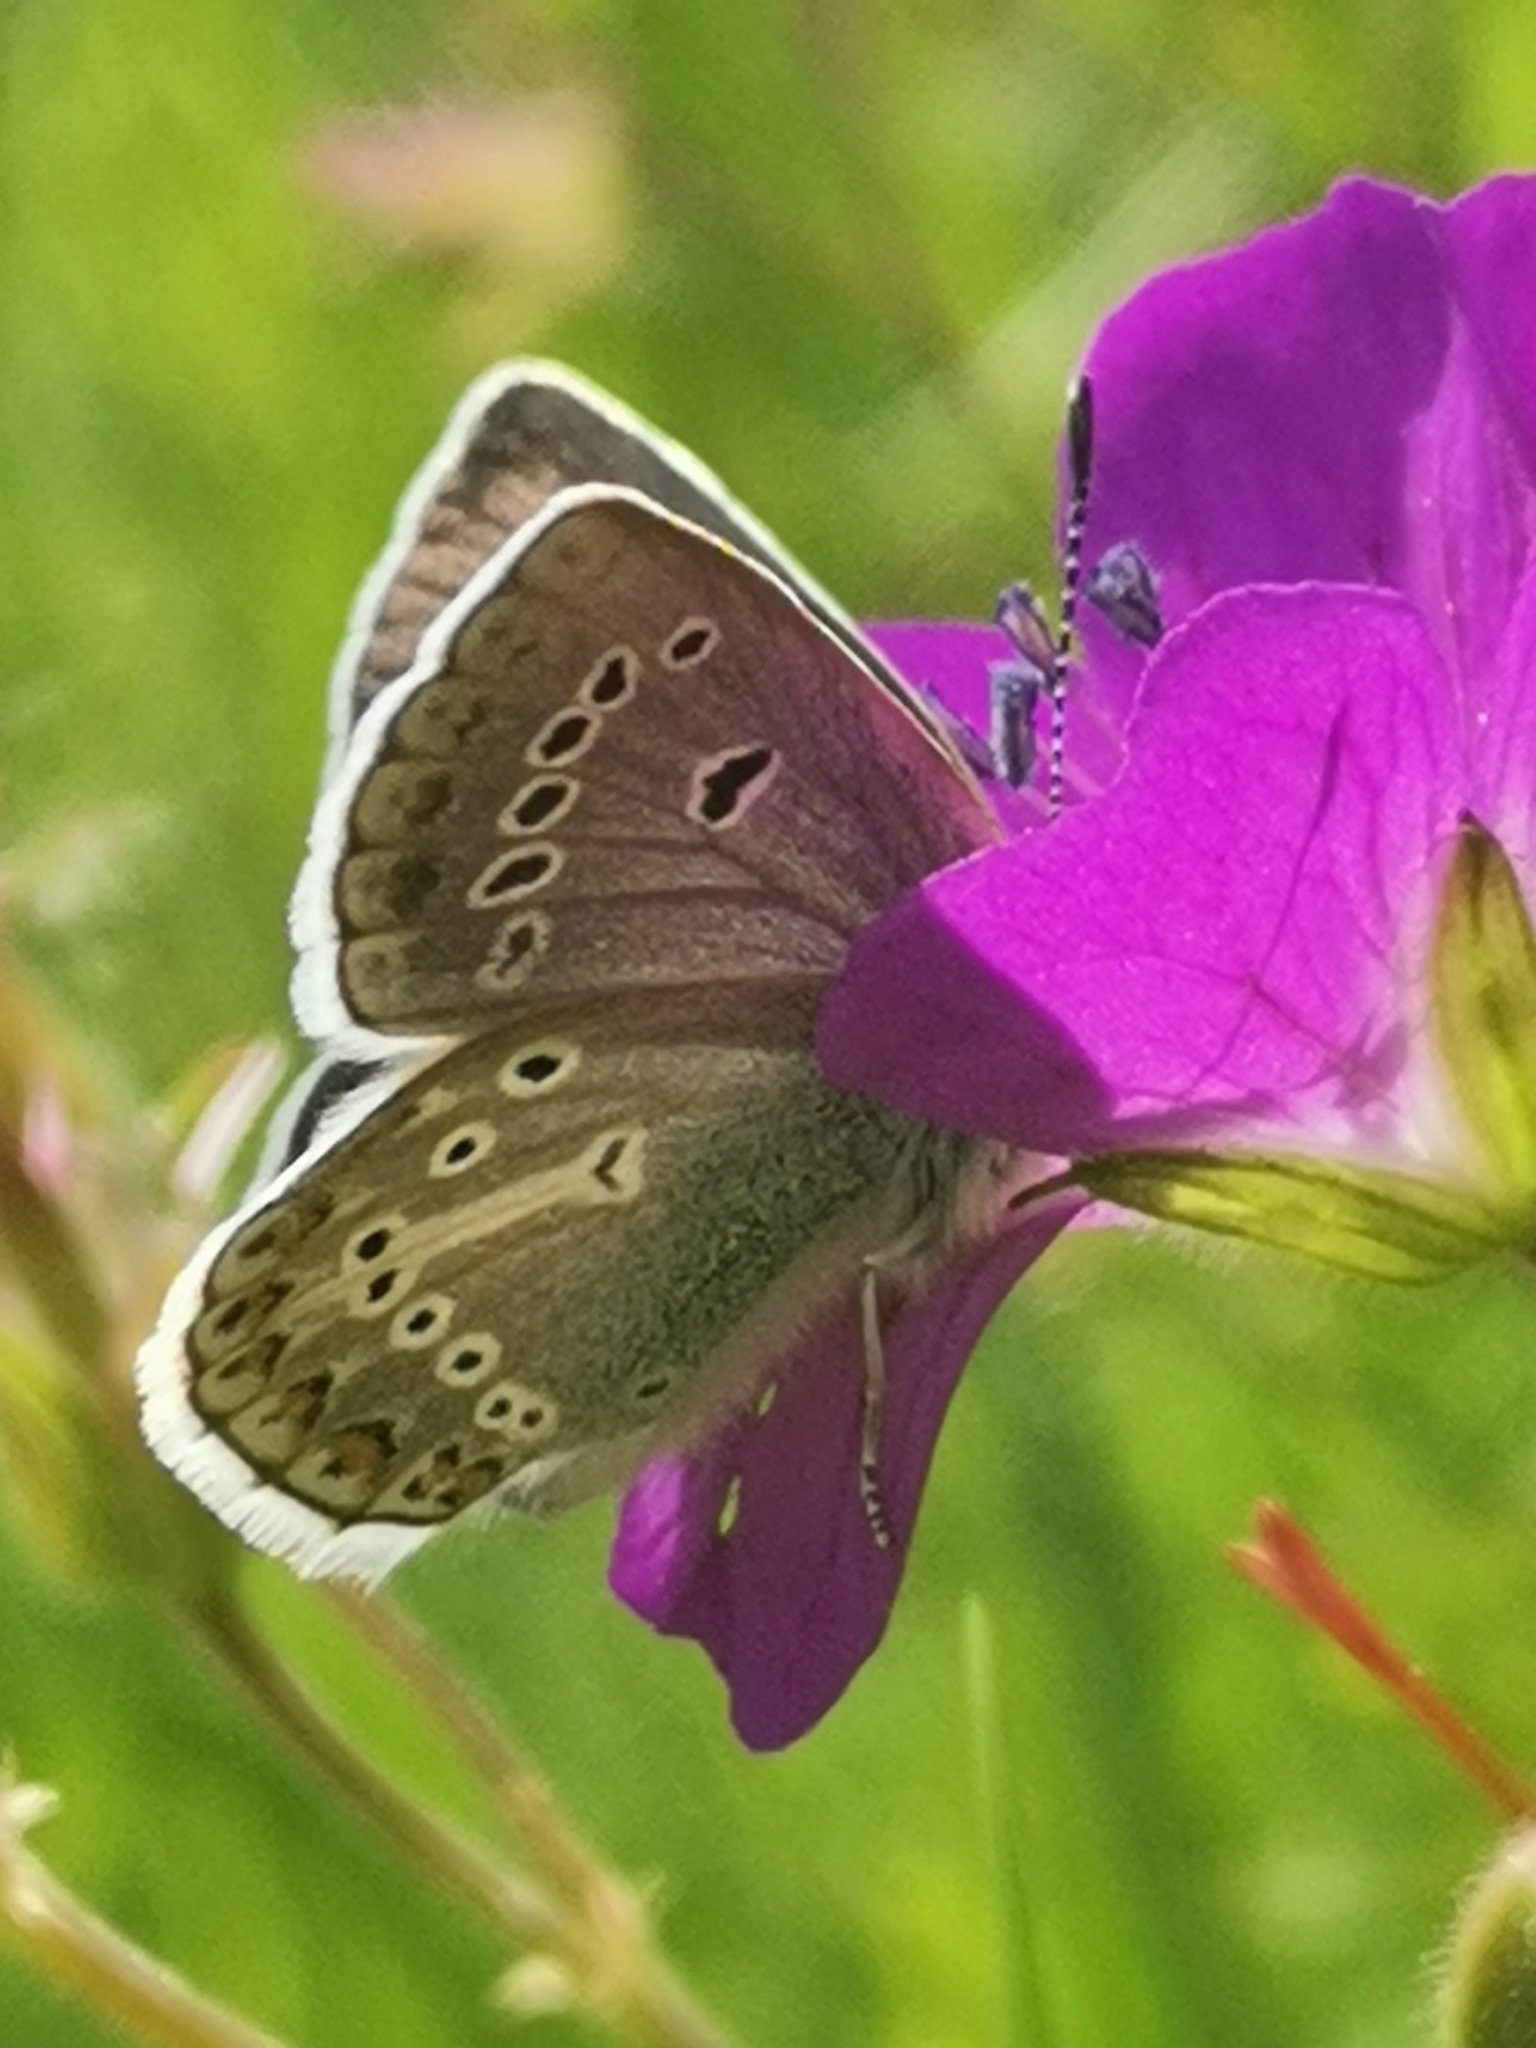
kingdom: Animalia
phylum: Arthropoda
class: Insecta
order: Lepidoptera
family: Lycaenidae
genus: Eumedonia
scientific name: Eumedonia eumedon
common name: Geranium argus
